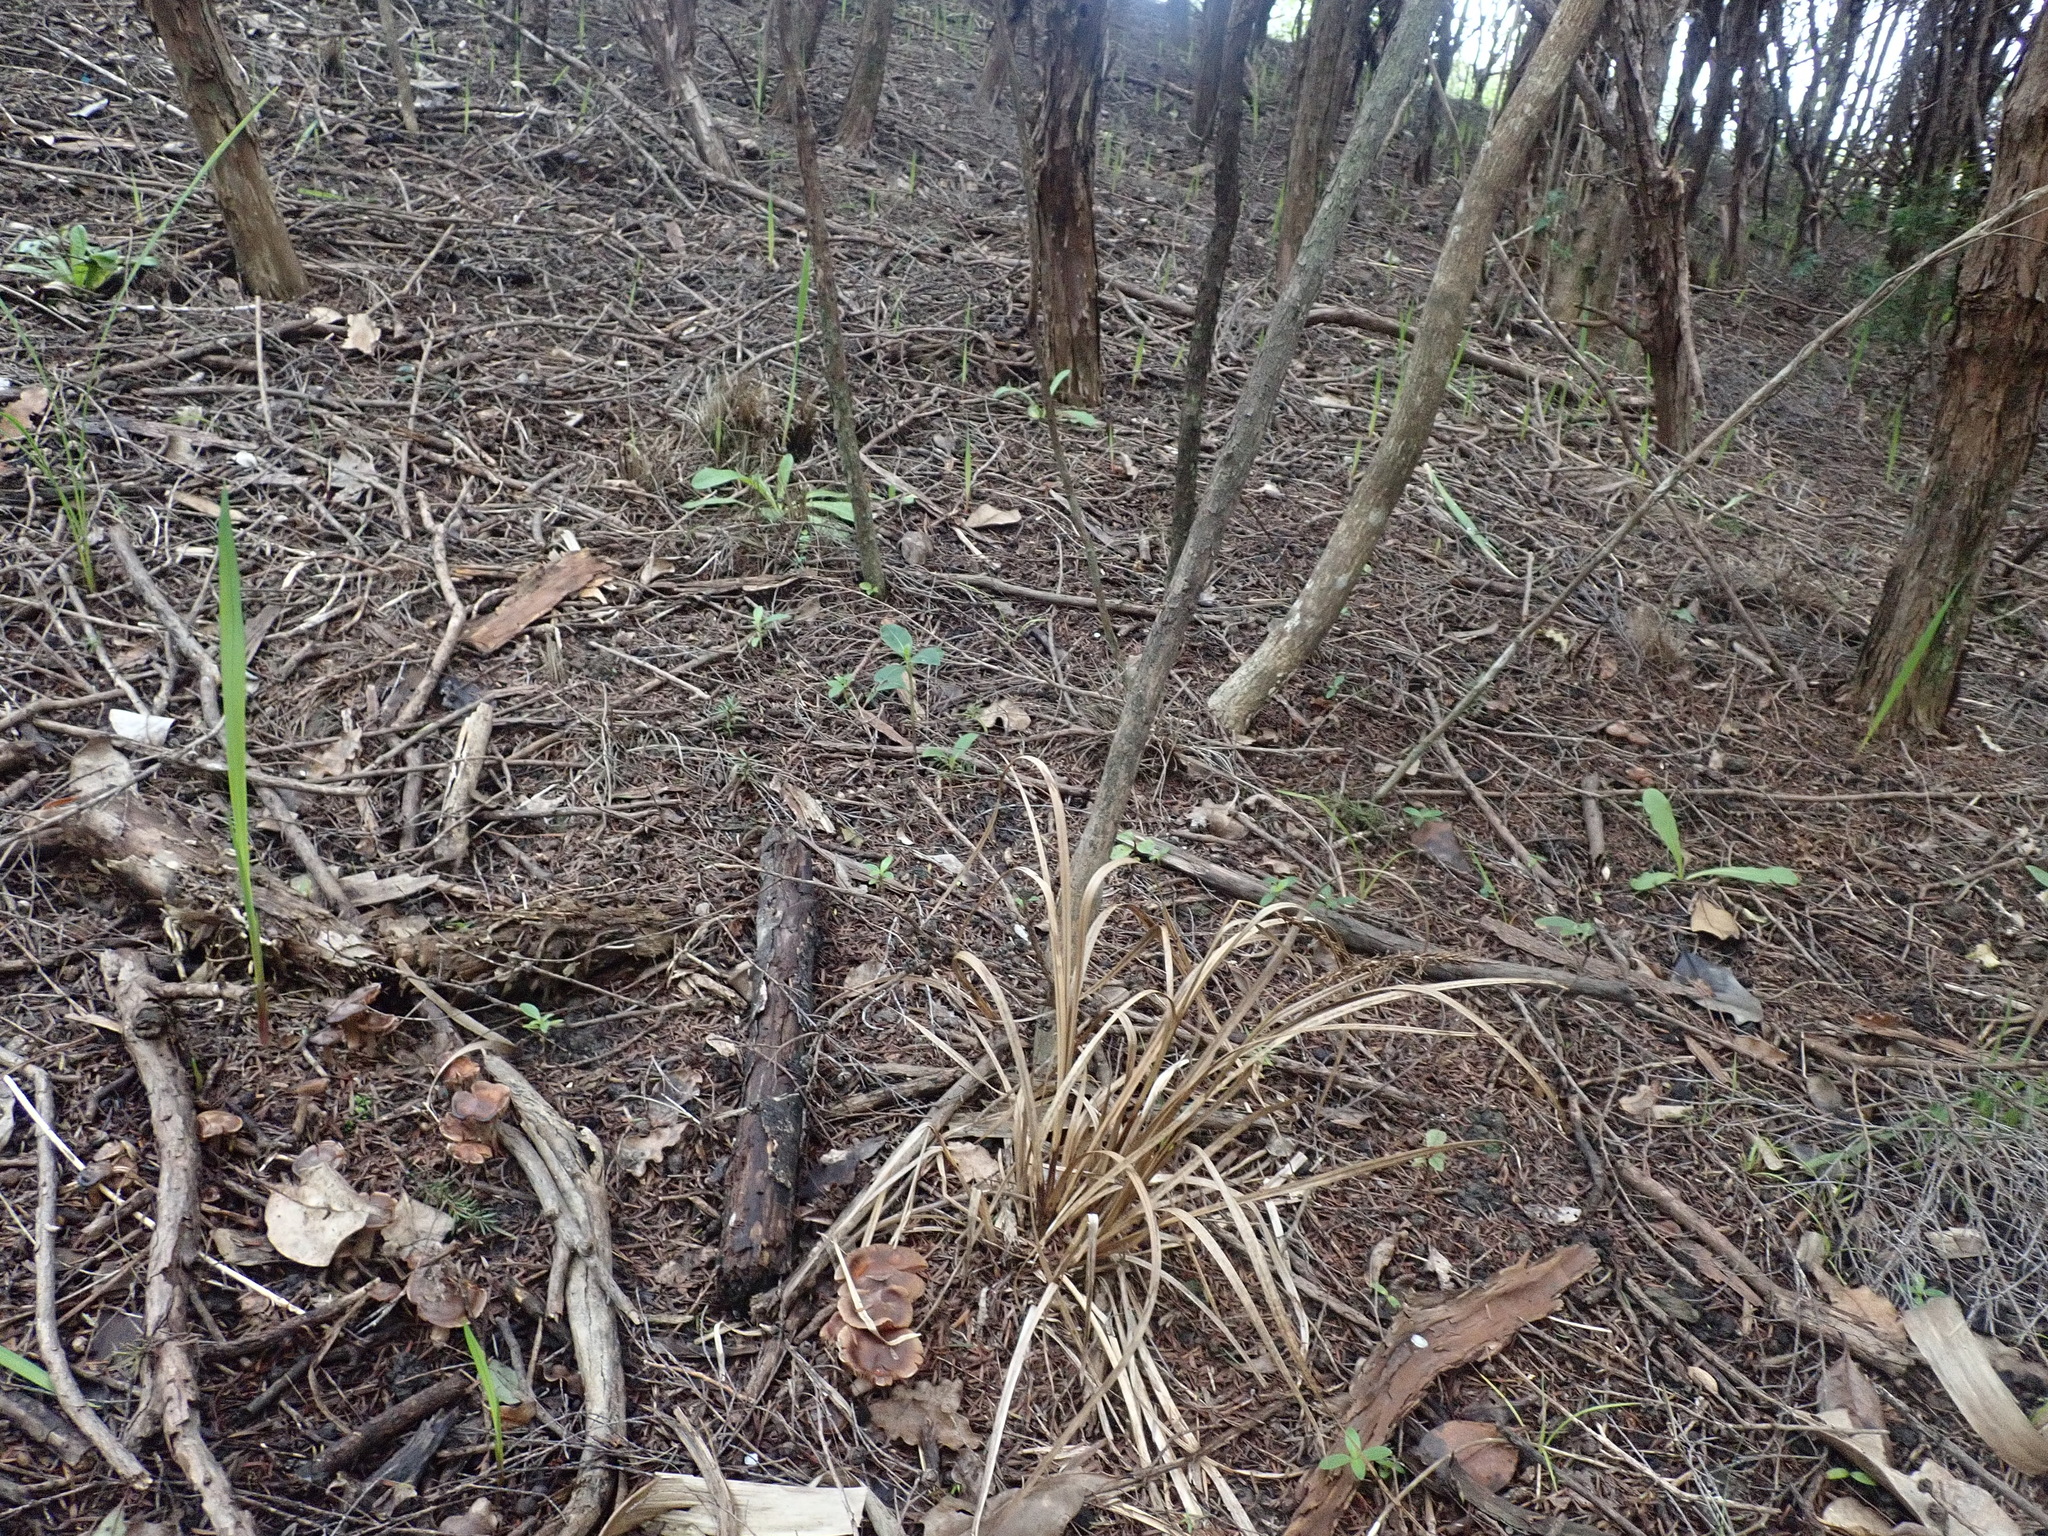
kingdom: Plantae
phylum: Tracheophyta
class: Liliopsida
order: Poales
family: Cyperaceae
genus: Carex
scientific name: Carex uncinata
